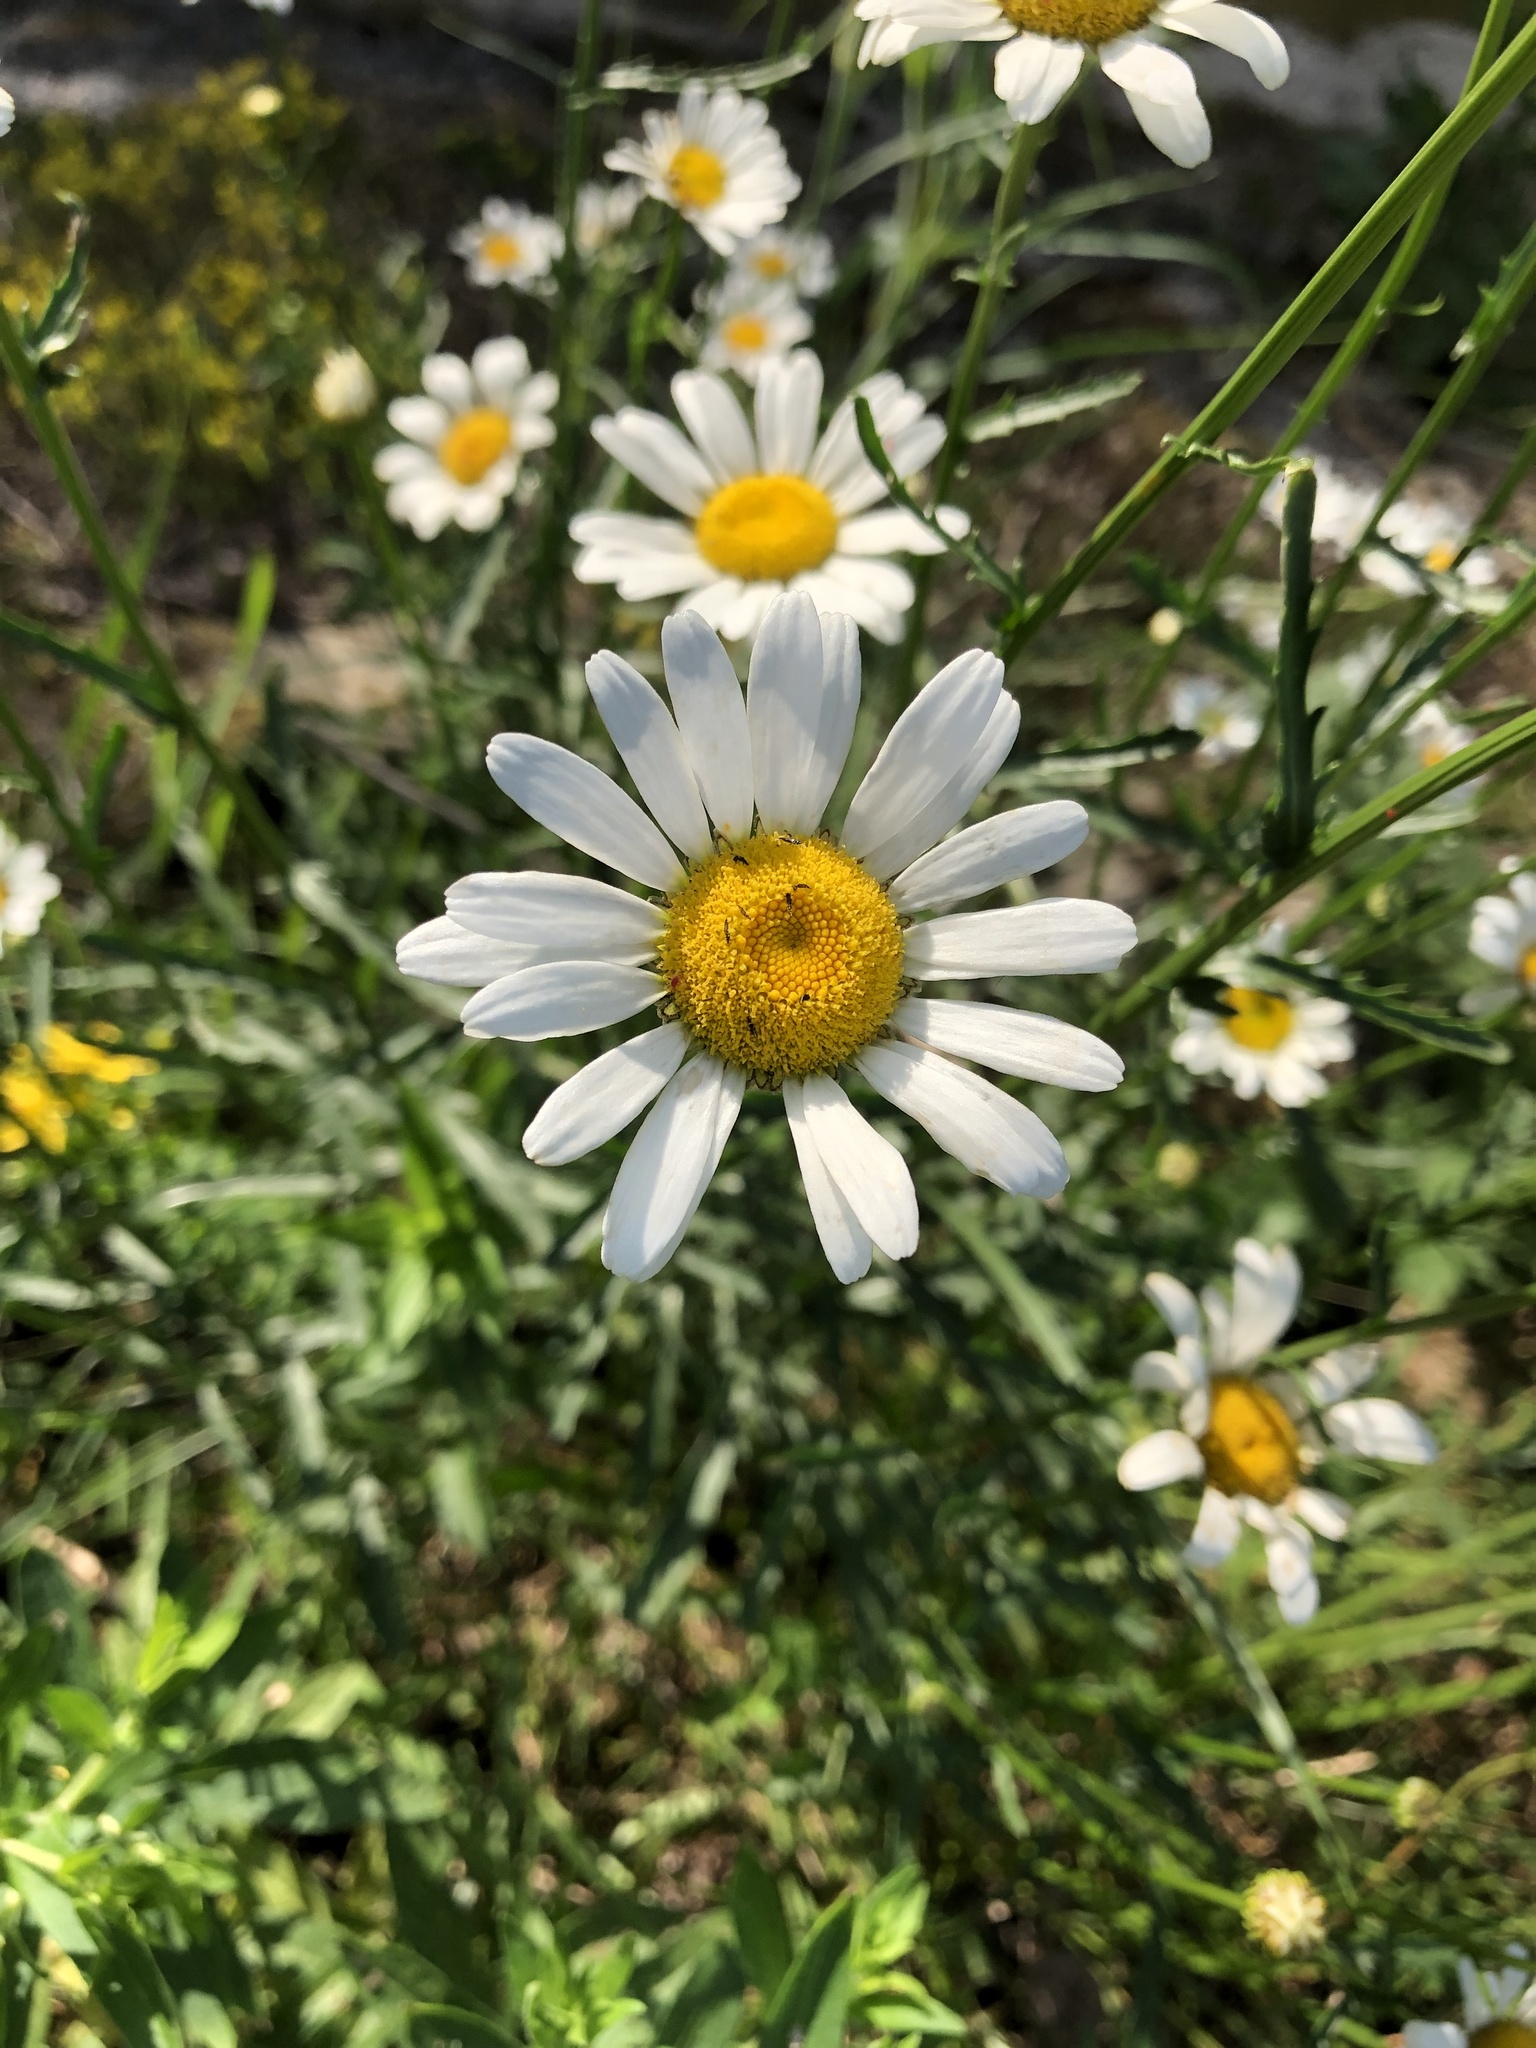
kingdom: Plantae
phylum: Tracheophyta
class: Magnoliopsida
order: Asterales
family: Asteraceae
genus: Leucanthemum
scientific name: Leucanthemum vulgare
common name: Oxeye daisy
